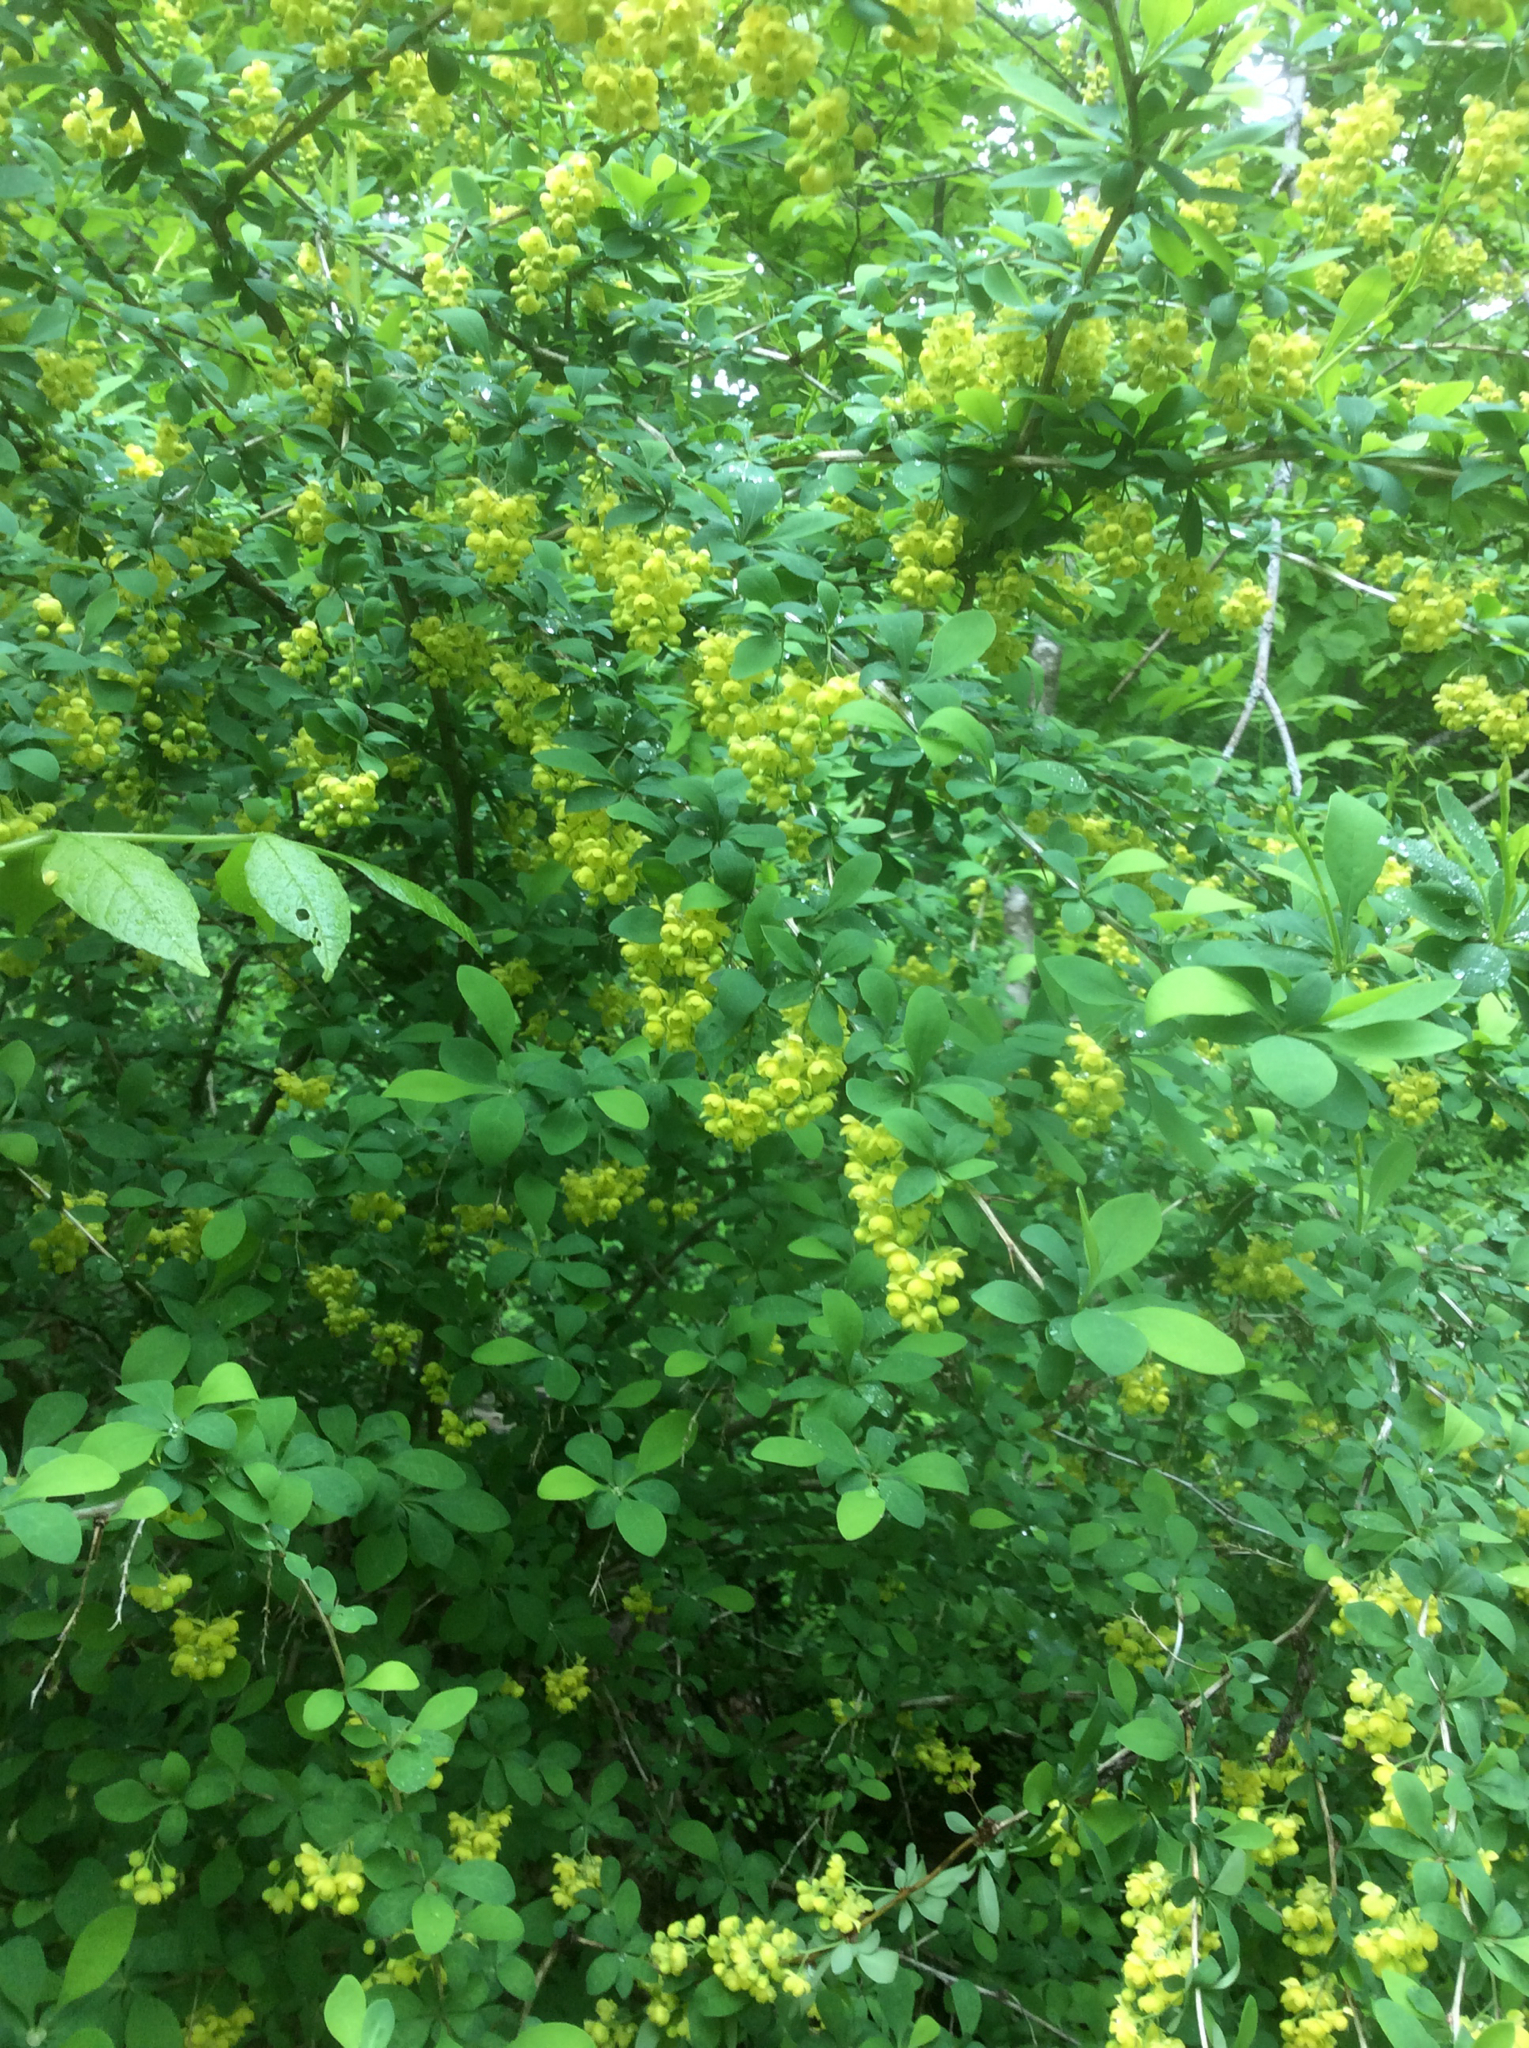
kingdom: Plantae
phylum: Tracheophyta
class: Magnoliopsida
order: Ranunculales
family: Berberidaceae
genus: Berberis
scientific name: Berberis vulgaris
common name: Barberry
